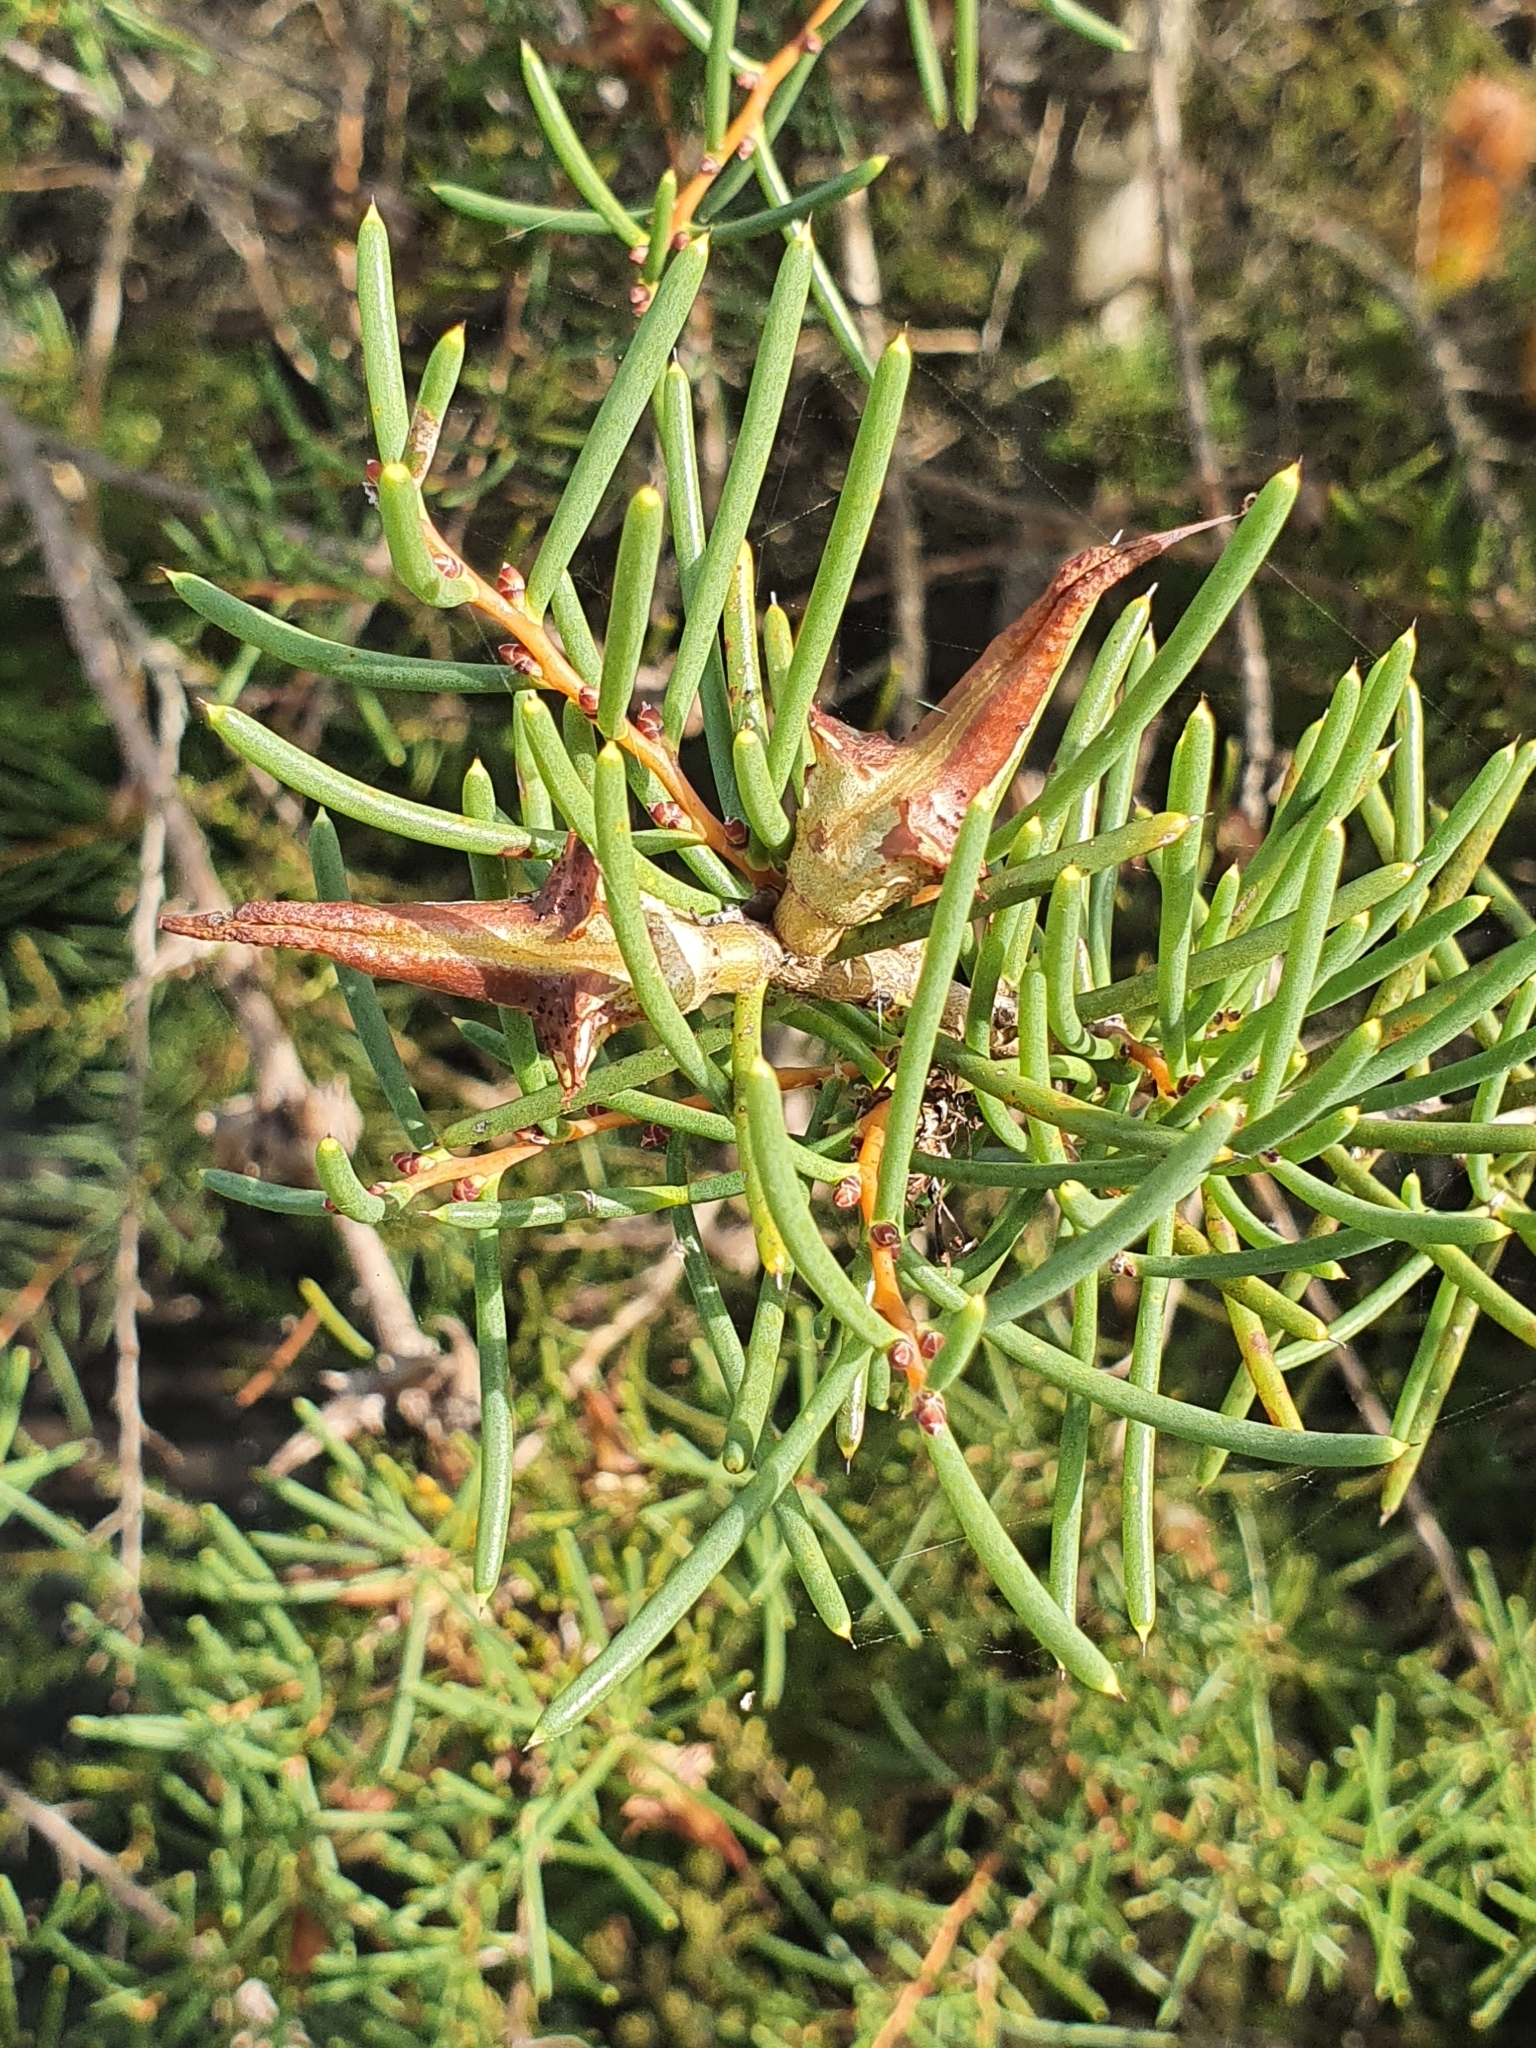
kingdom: Plantae
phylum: Tracheophyta
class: Magnoliopsida
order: Proteales
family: Proteaceae
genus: Hakea
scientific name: Hakea teretifolia
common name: Dagger hakea
